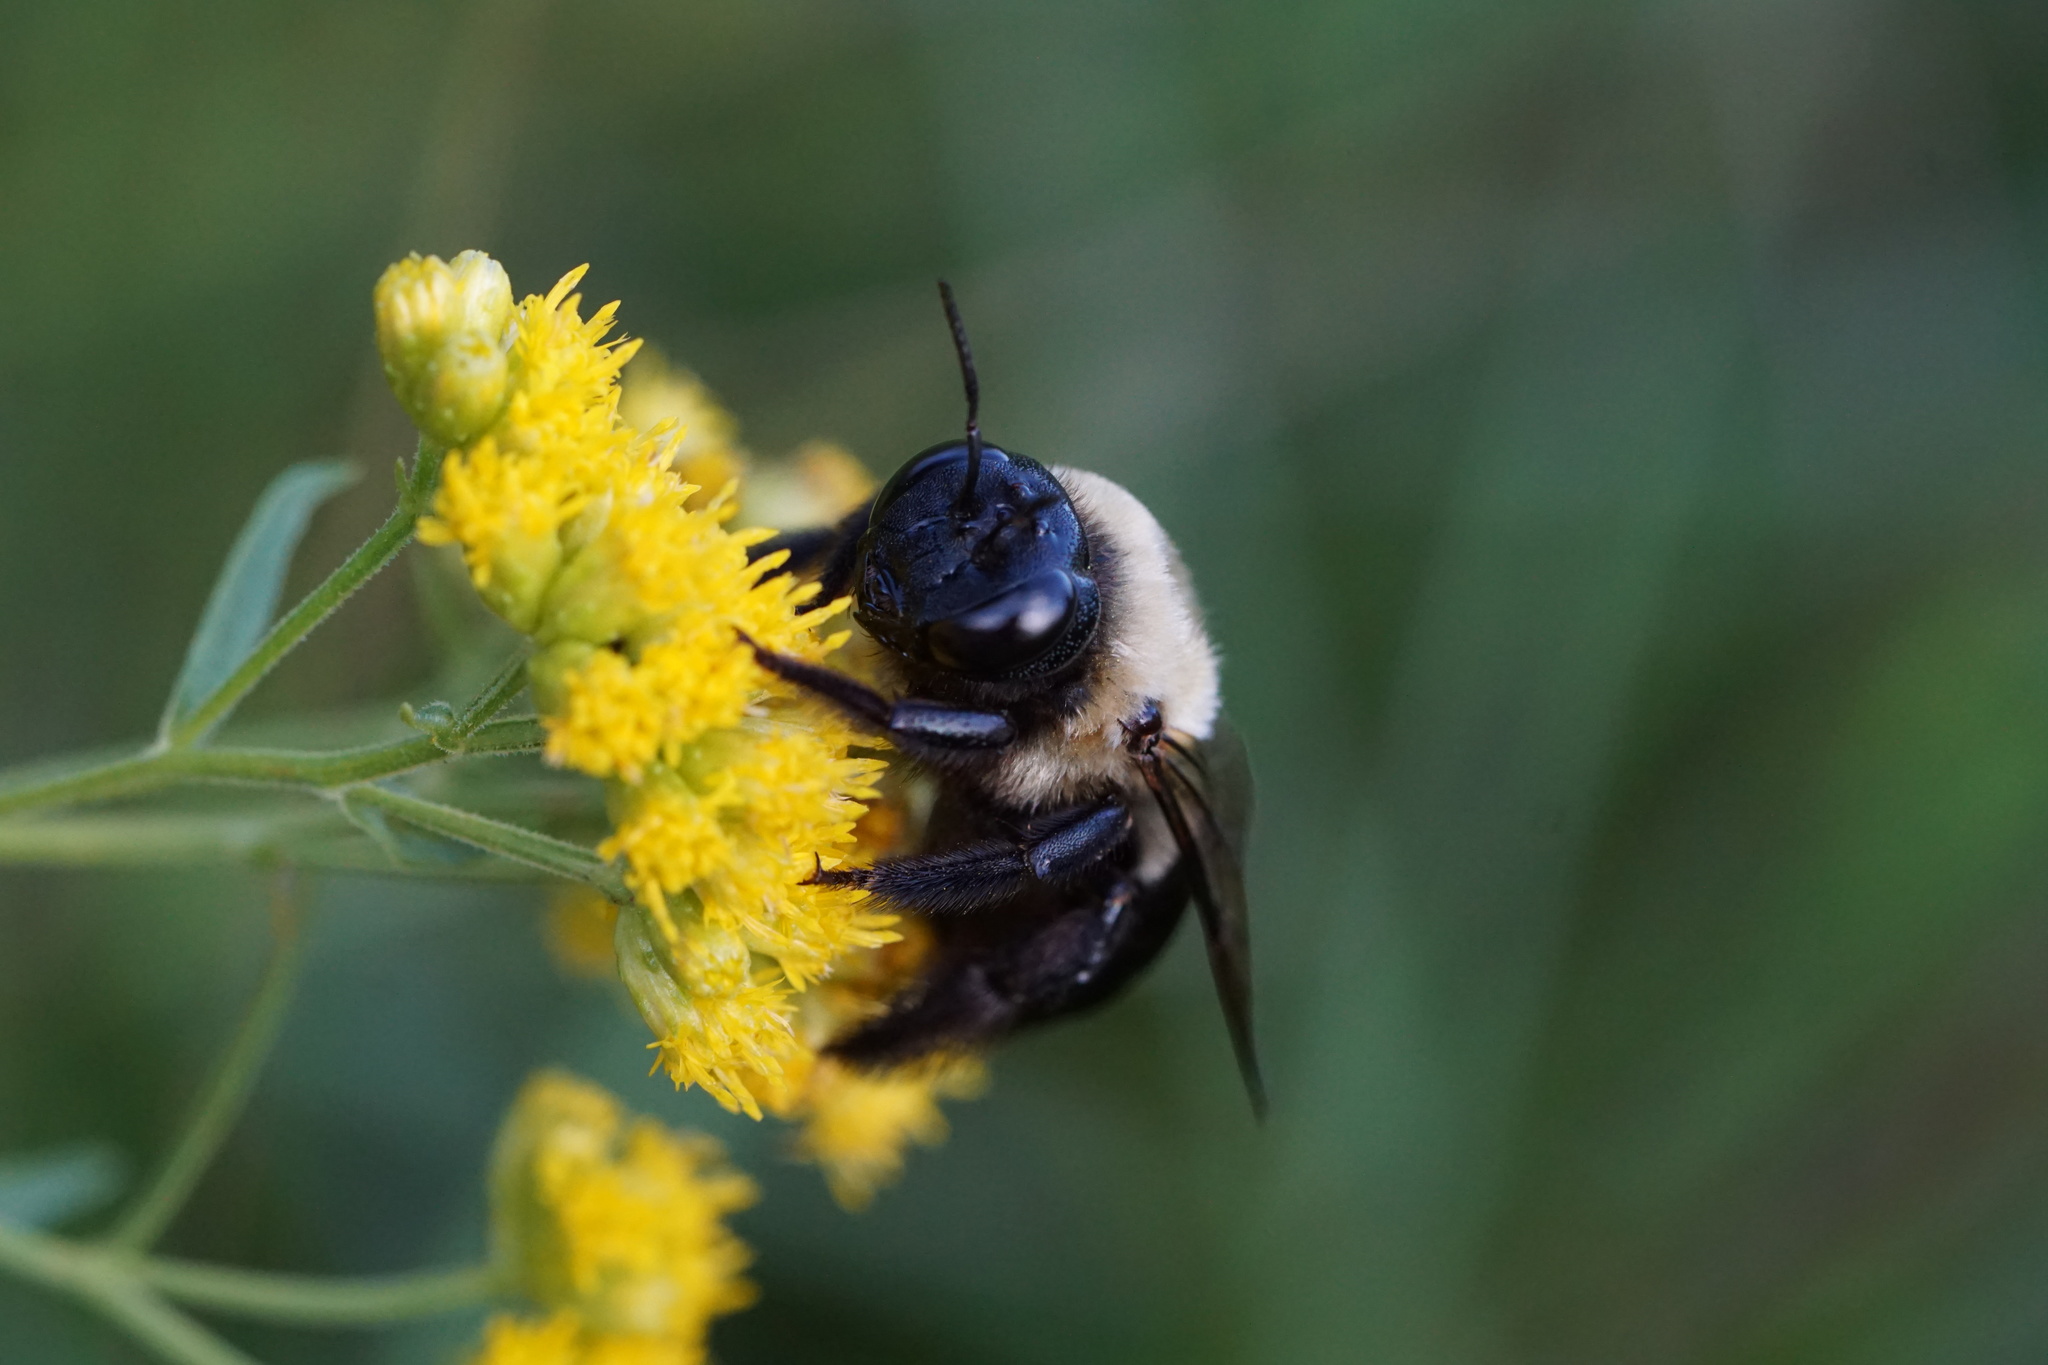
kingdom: Animalia
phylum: Arthropoda
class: Insecta
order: Hymenoptera
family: Apidae
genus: Xylocopa
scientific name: Xylocopa virginica
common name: Carpenter bee
